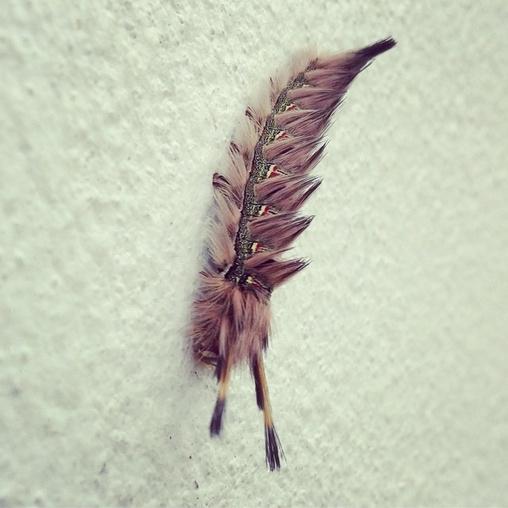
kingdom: Animalia
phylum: Arthropoda
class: Insecta
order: Lepidoptera
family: Eupterotidae
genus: Lichenopteryx
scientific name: Lichenopteryx despecta
